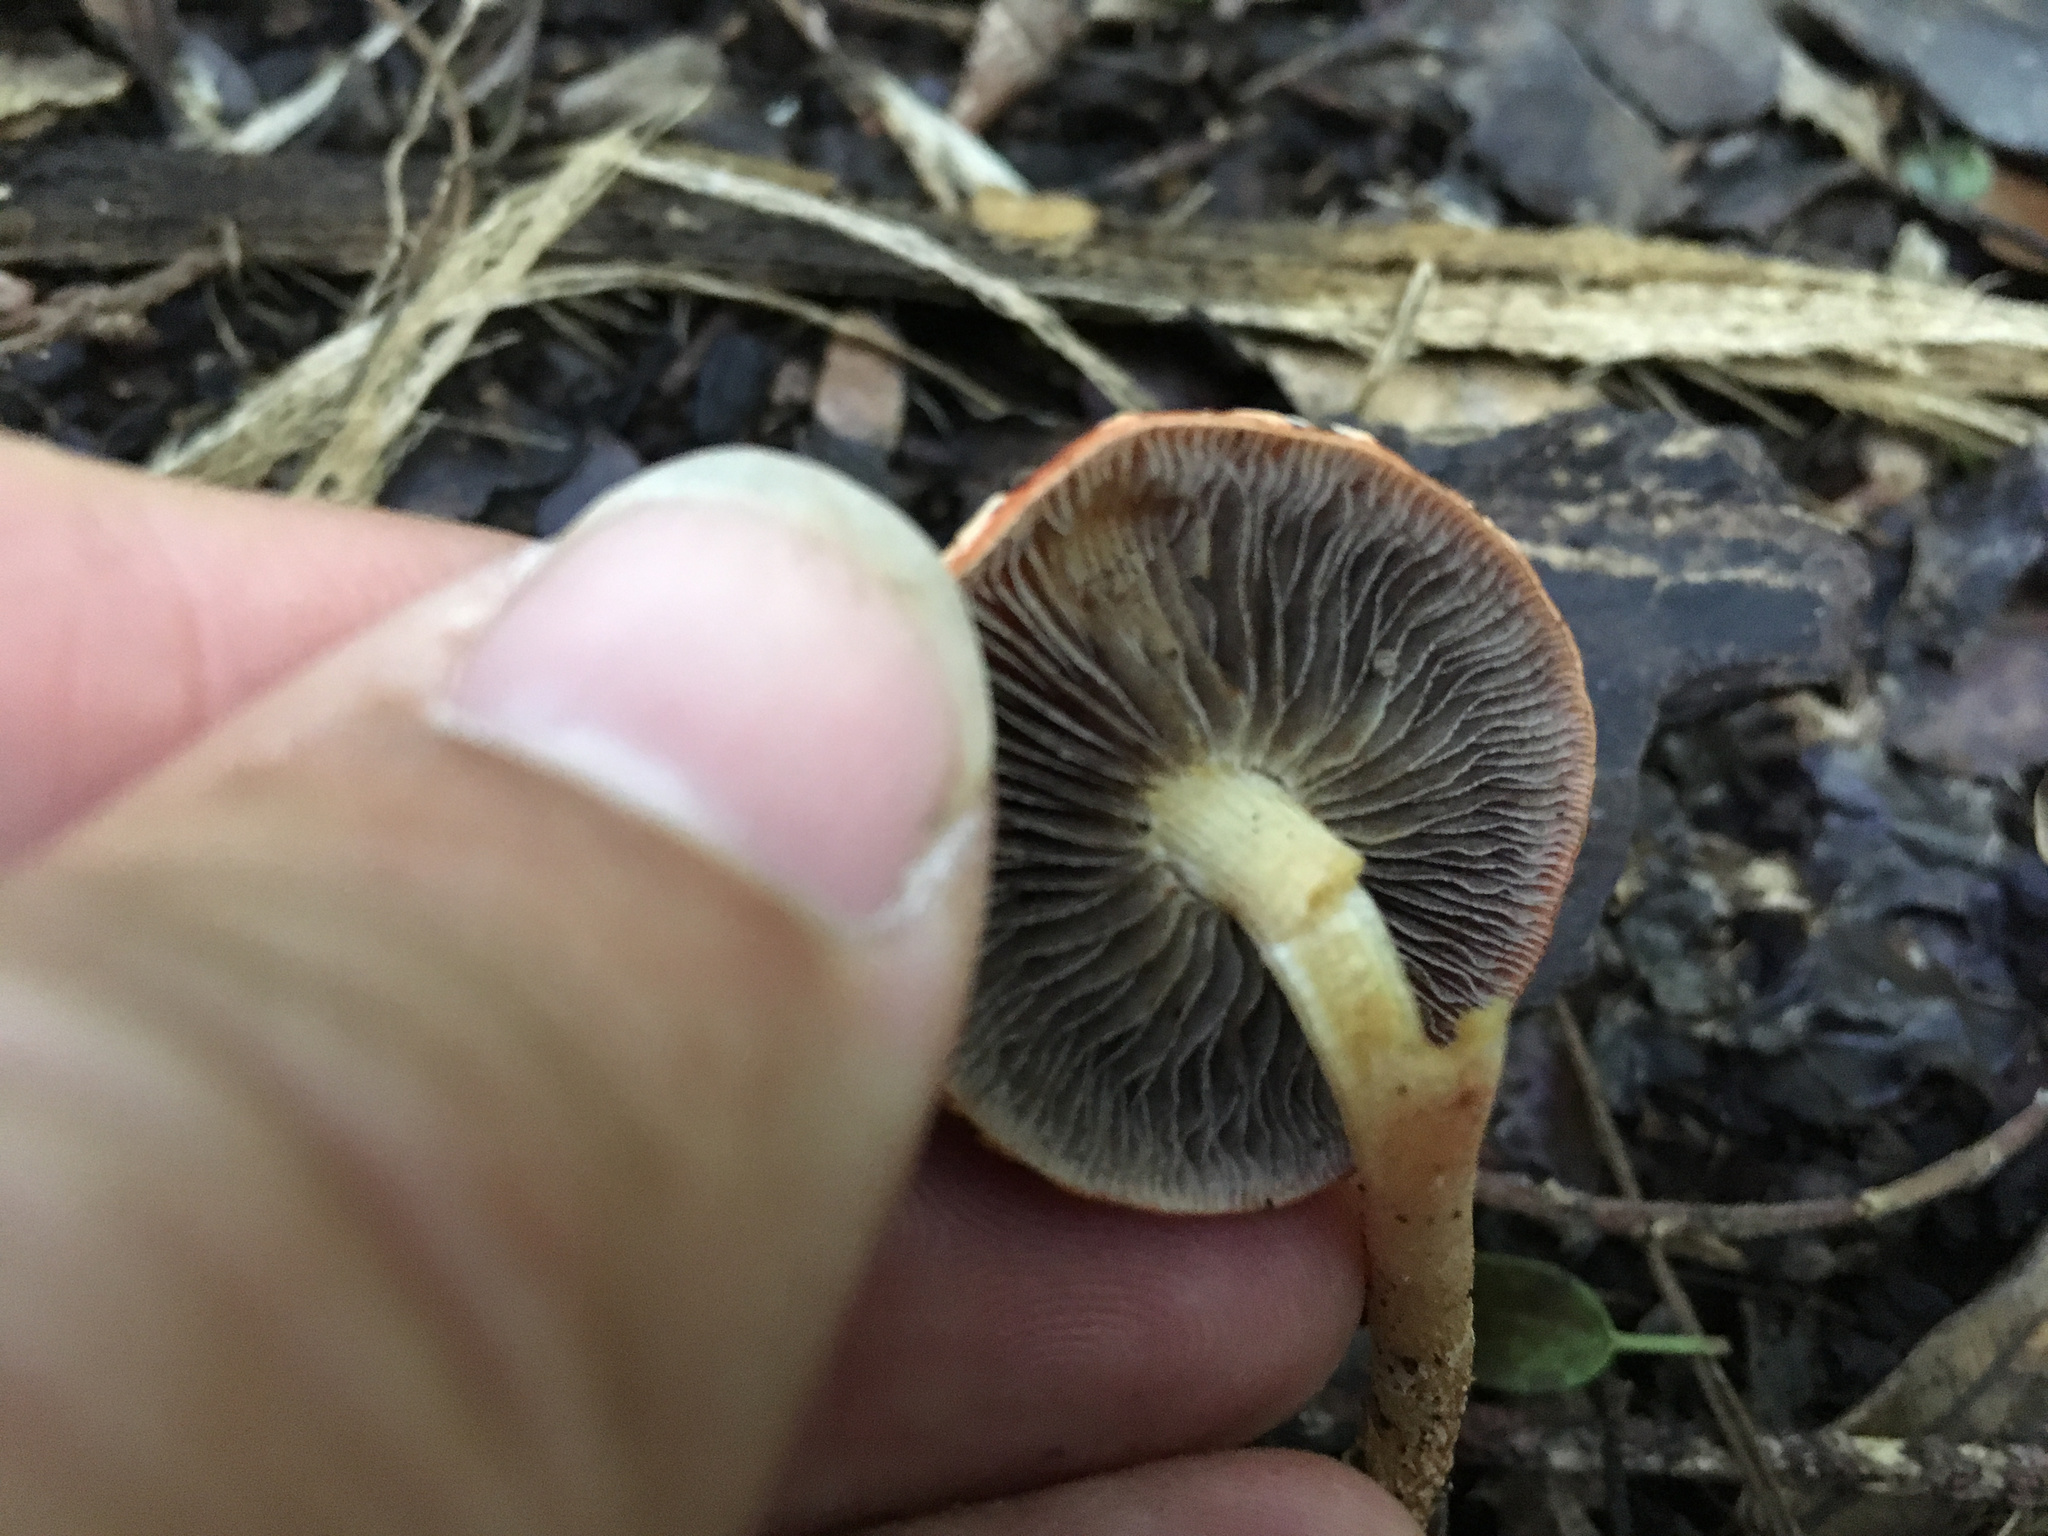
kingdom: Fungi
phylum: Basidiomycota
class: Agaricomycetes
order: Agaricales
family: Strophariaceae
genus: Leratiomyces
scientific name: Leratiomyces ceres
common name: Redlead roundhead
